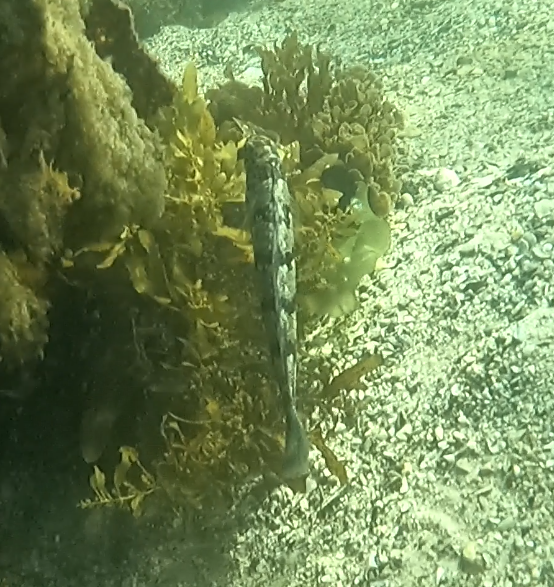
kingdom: Animalia
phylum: Chordata
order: Perciformes
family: Labridae
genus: Eupetrichthys
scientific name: Eupetrichthys angustipes
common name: Snake-skin wrasse
